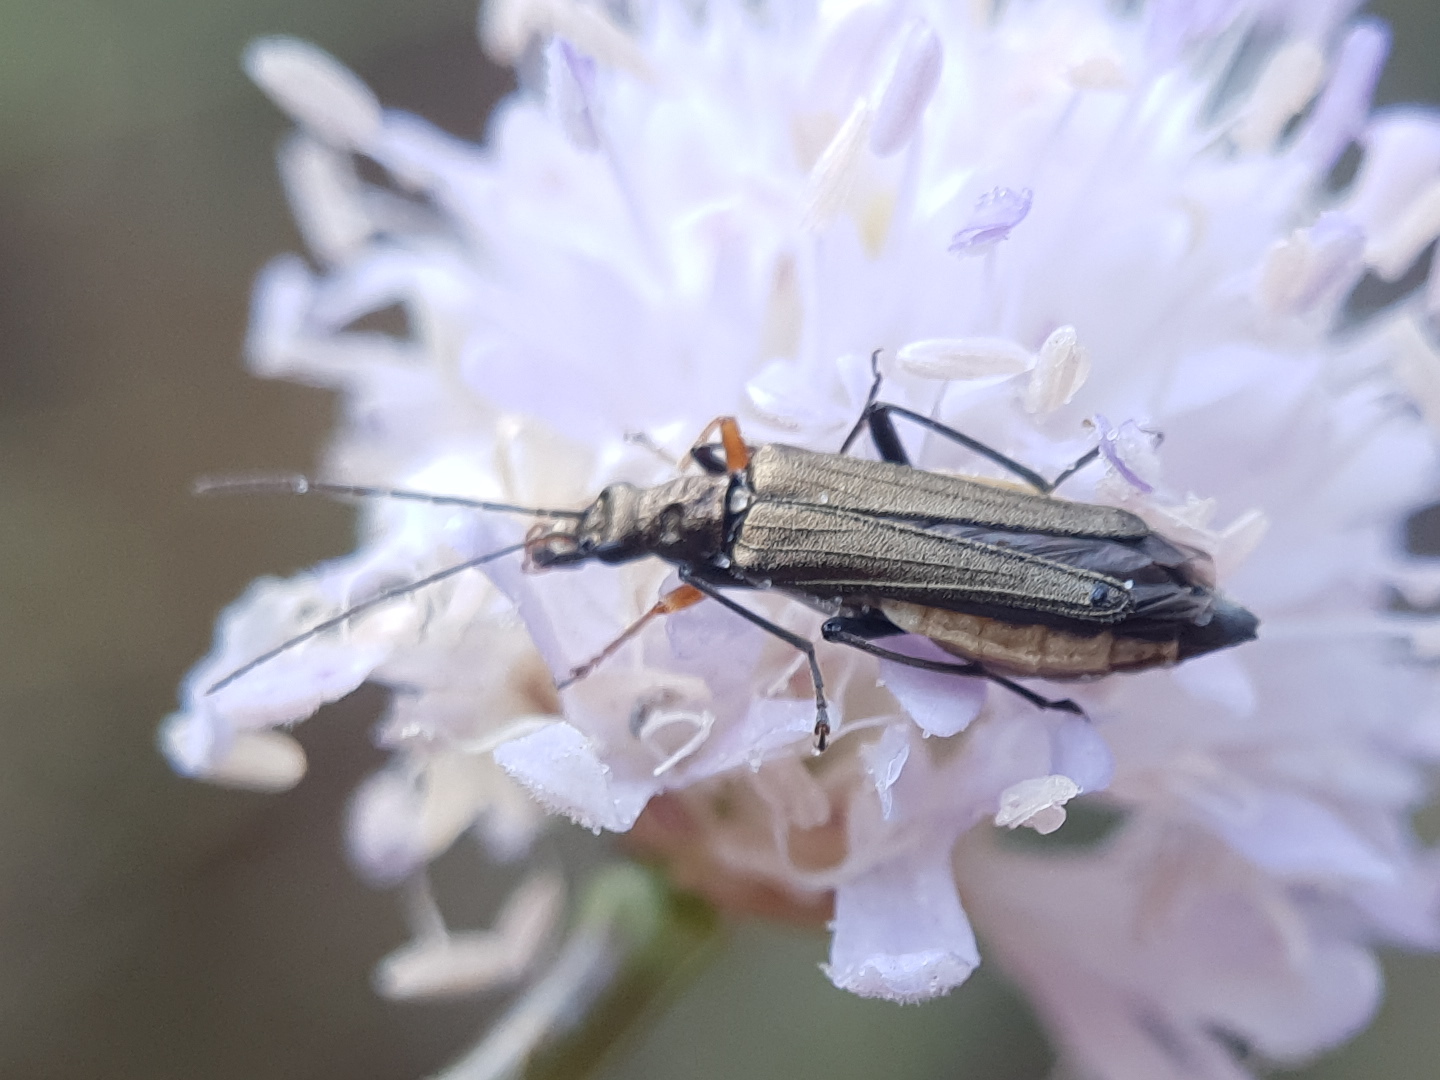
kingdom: Animalia
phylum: Arthropoda
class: Insecta
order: Coleoptera
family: Oedemeridae
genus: Oedemera
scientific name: Oedemera flavipes
